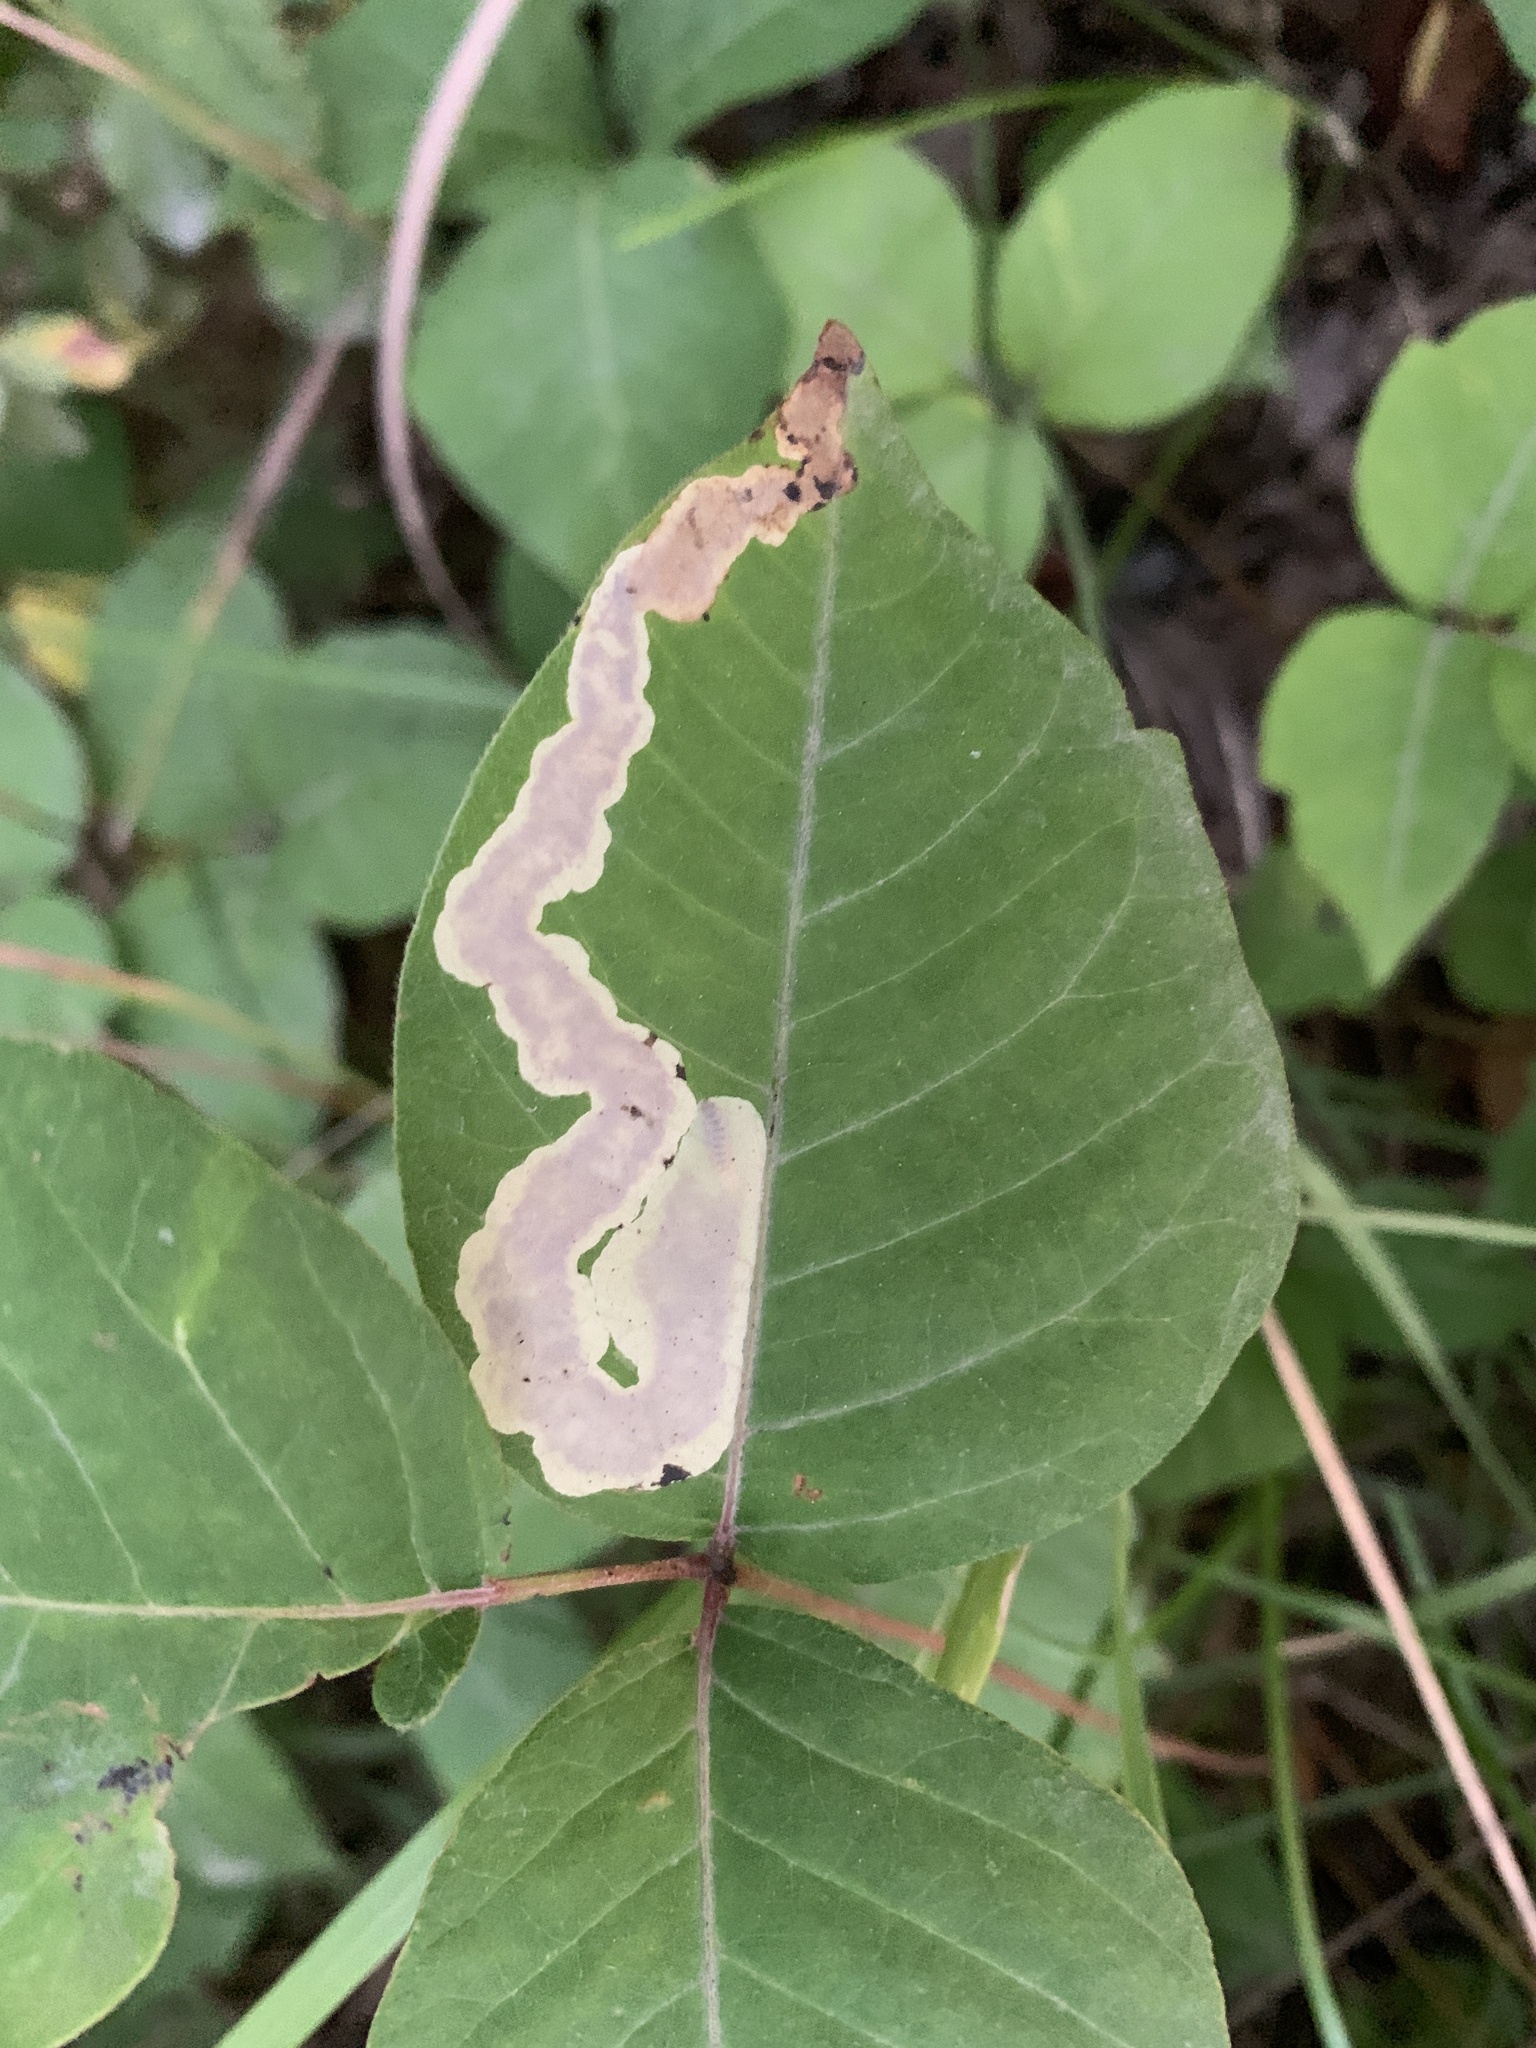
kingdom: Animalia
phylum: Arthropoda
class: Insecta
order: Lepidoptera
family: Gracillariidae
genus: Cameraria
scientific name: Cameraria guttifinitella
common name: Poison ivy leaf-miner moth
